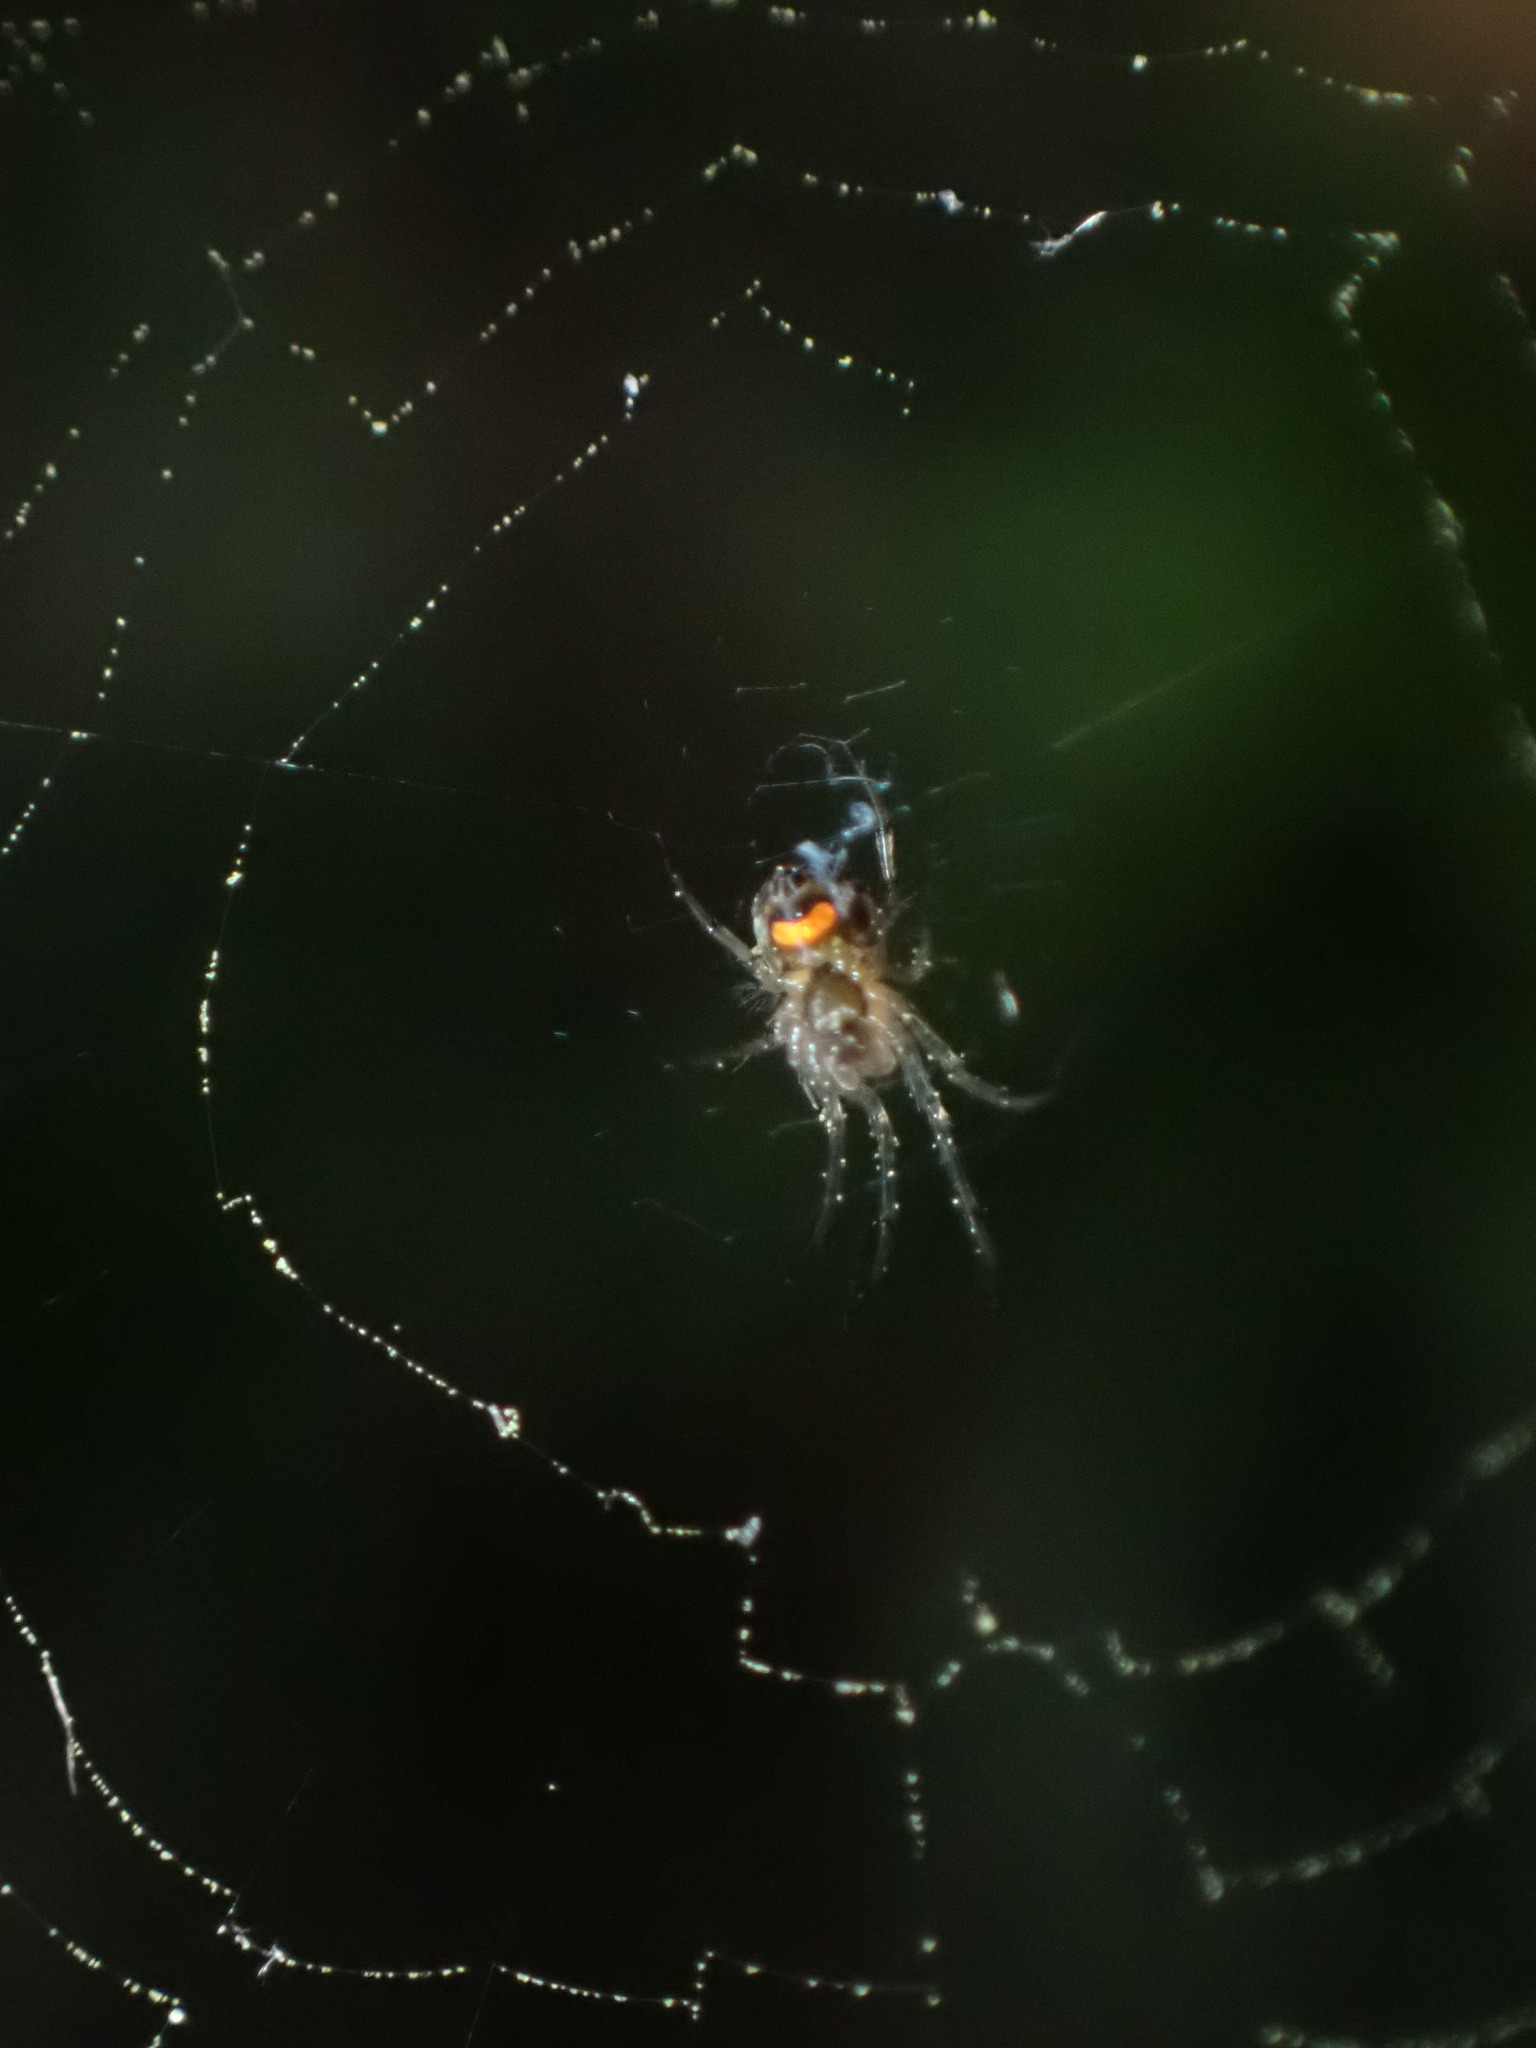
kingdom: Animalia
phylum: Arthropoda
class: Arachnida
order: Araneae
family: Tetragnathidae
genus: Leucauge
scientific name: Leucauge venusta
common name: Longjawed orb weavers
